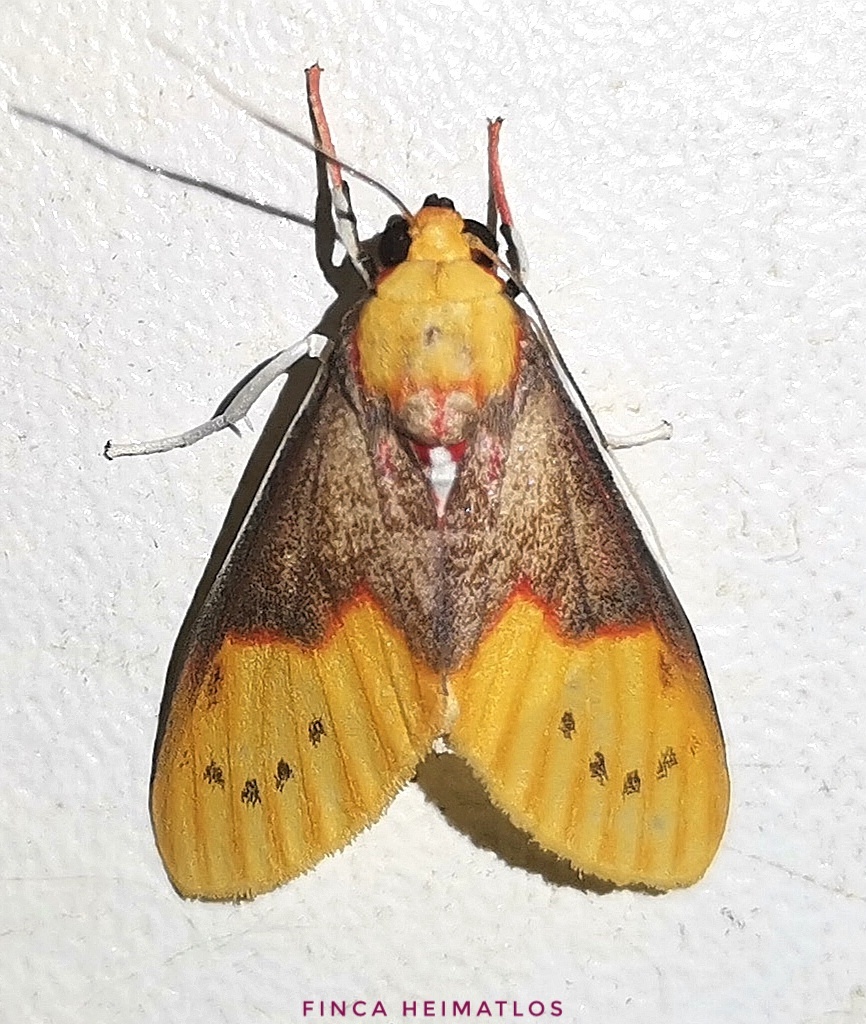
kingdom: Animalia
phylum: Arthropoda
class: Insecta
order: Lepidoptera
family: Erebidae
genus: Evius
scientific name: Evius aurococcinea
